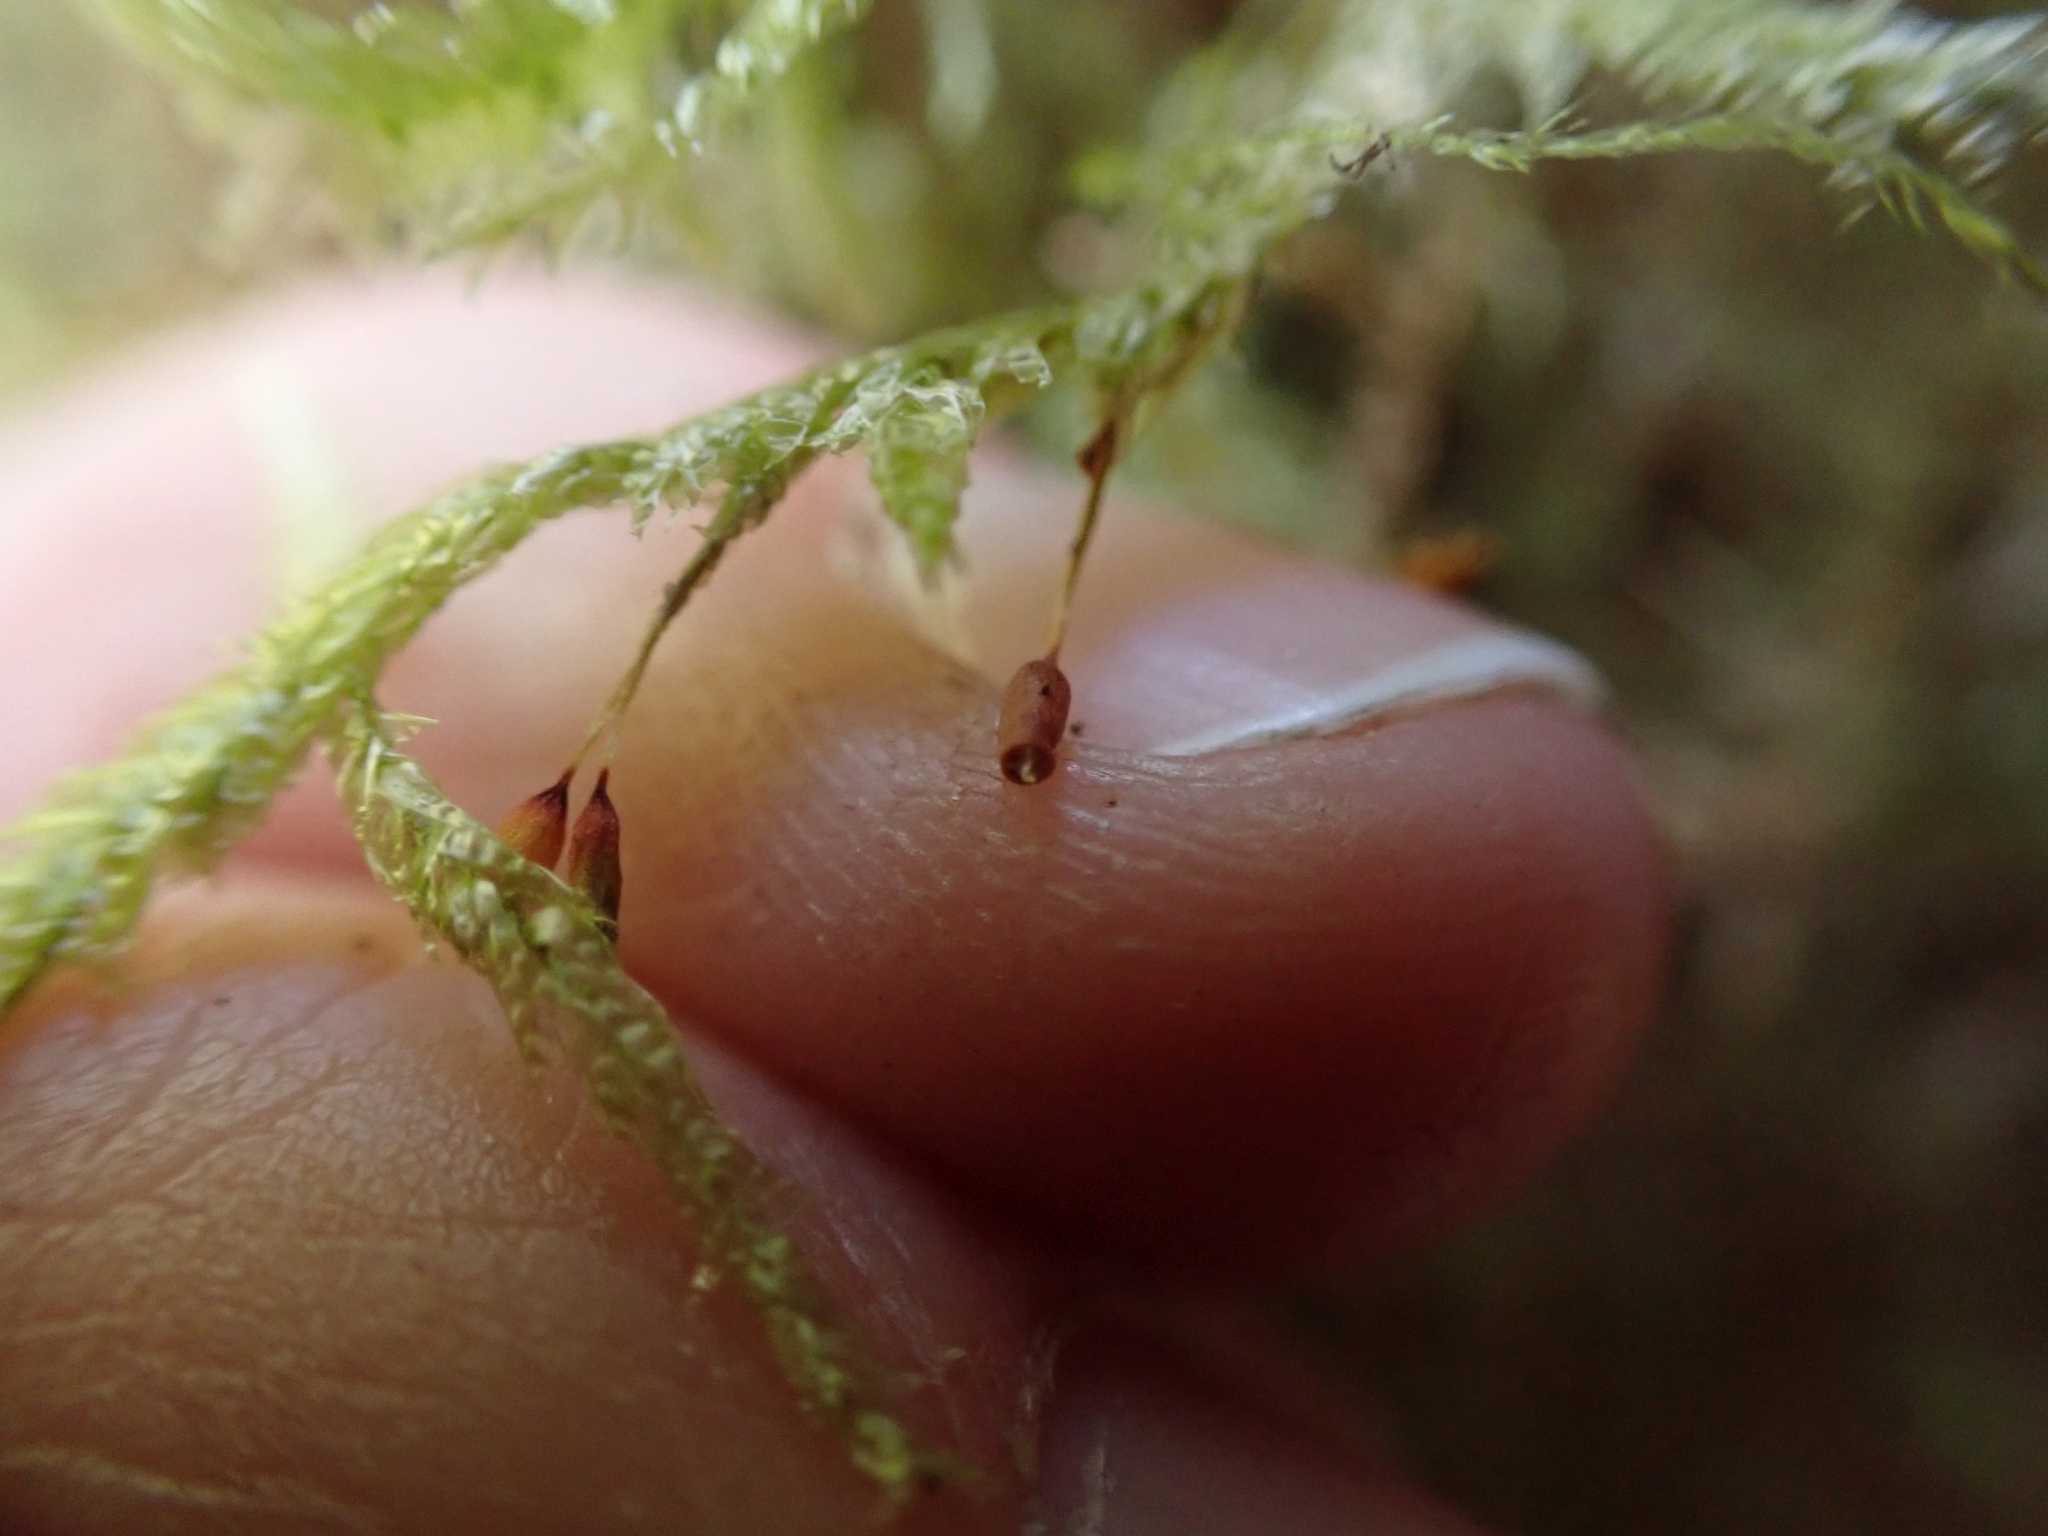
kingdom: Plantae
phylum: Bryophyta
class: Bryopsida
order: Hypnales
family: Neckeraceae
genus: Neckera
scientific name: Neckera douglasii
